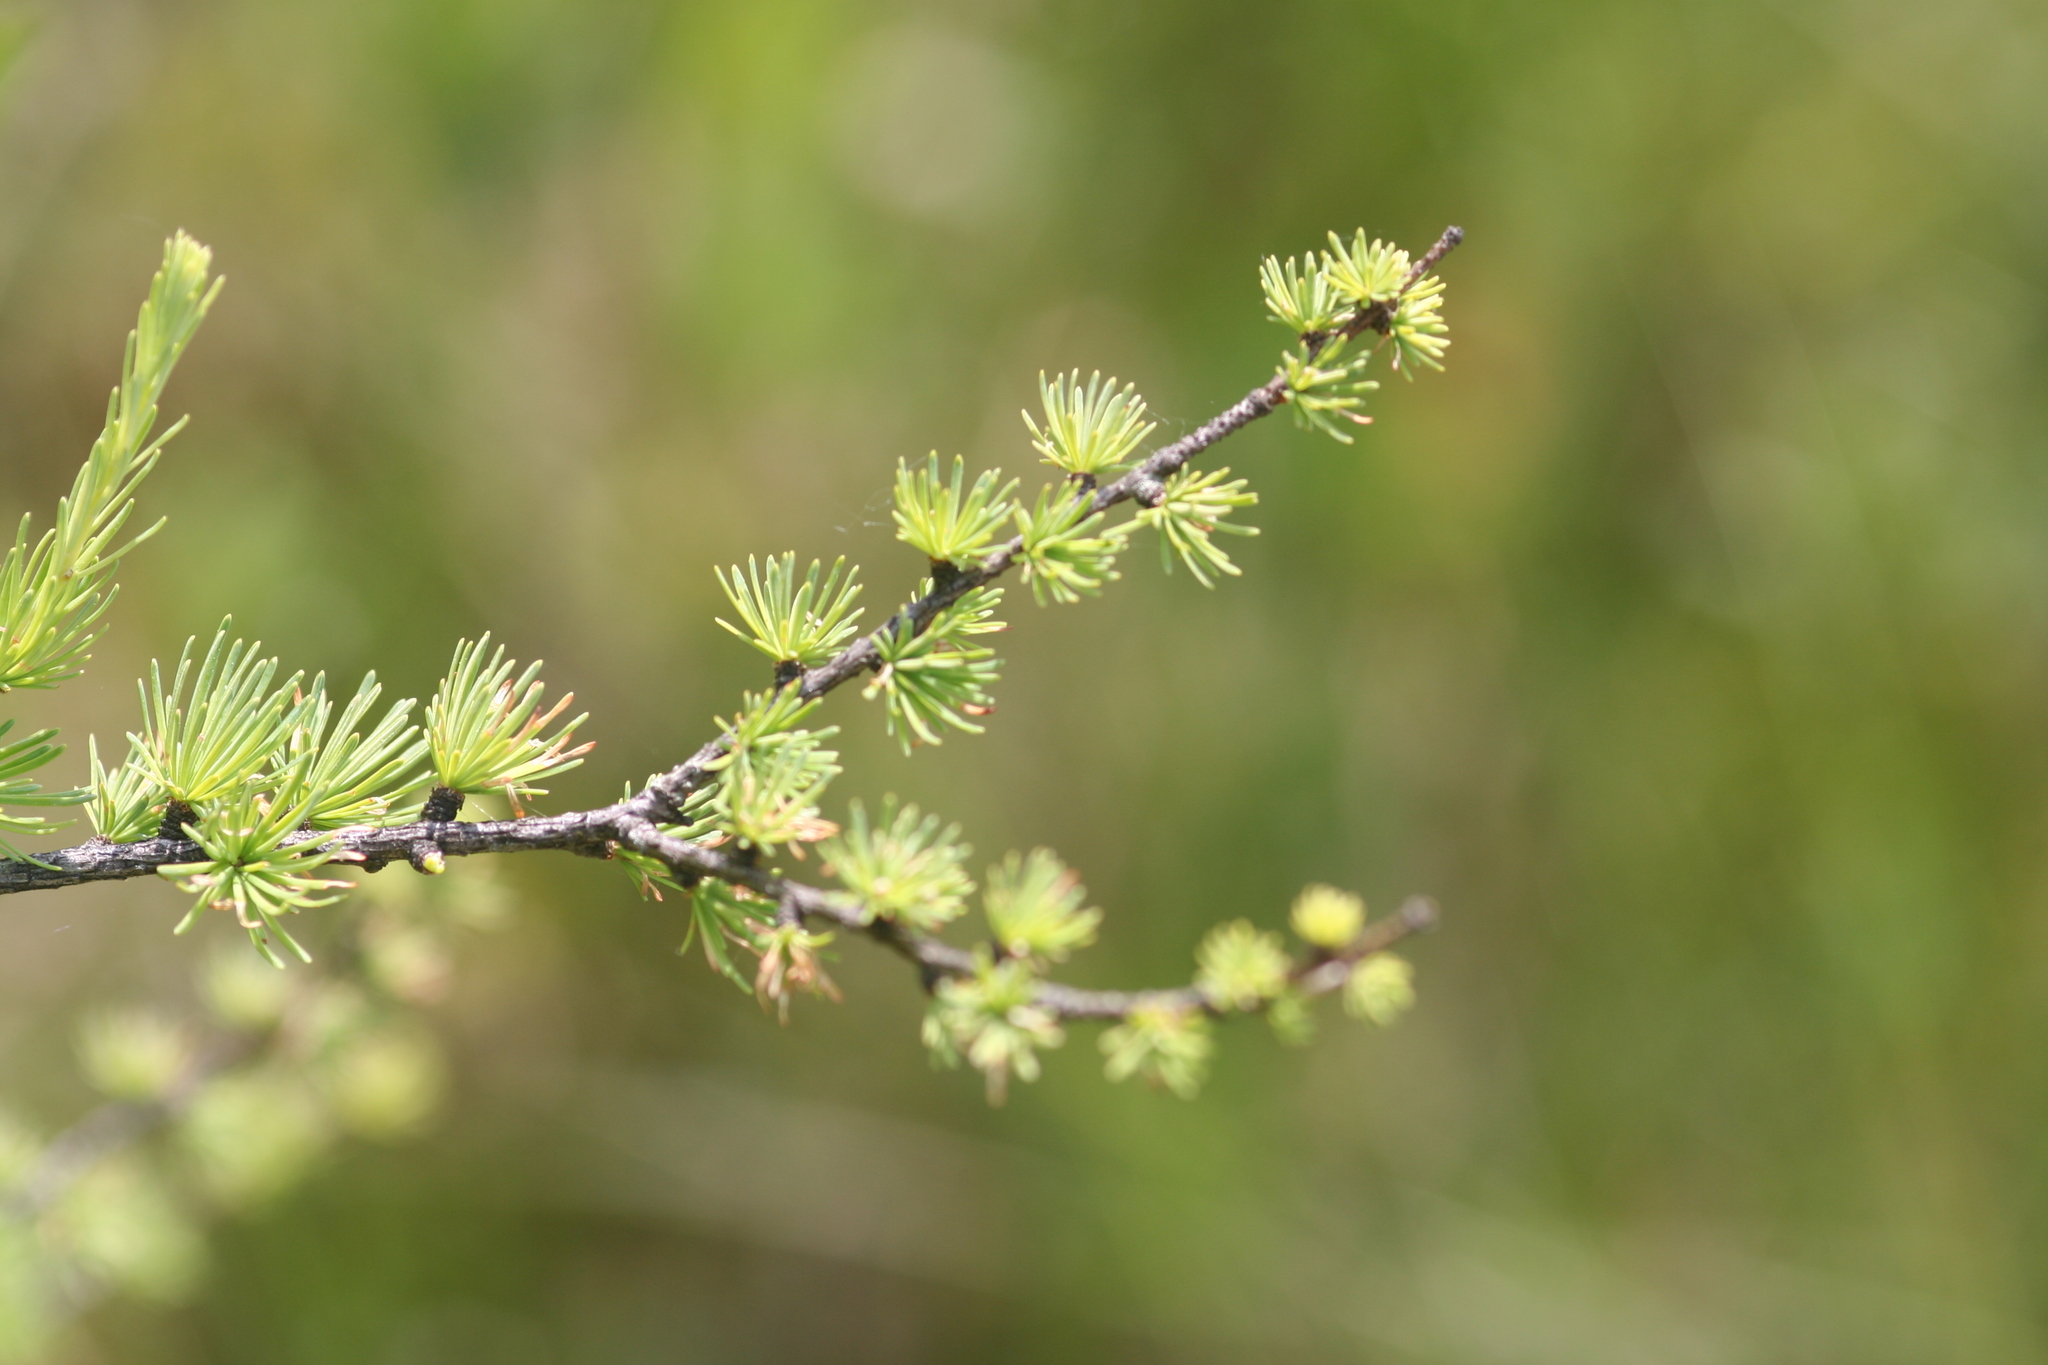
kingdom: Plantae
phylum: Tracheophyta
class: Pinopsida
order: Pinales
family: Pinaceae
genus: Larix
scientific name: Larix laricina
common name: American larch
